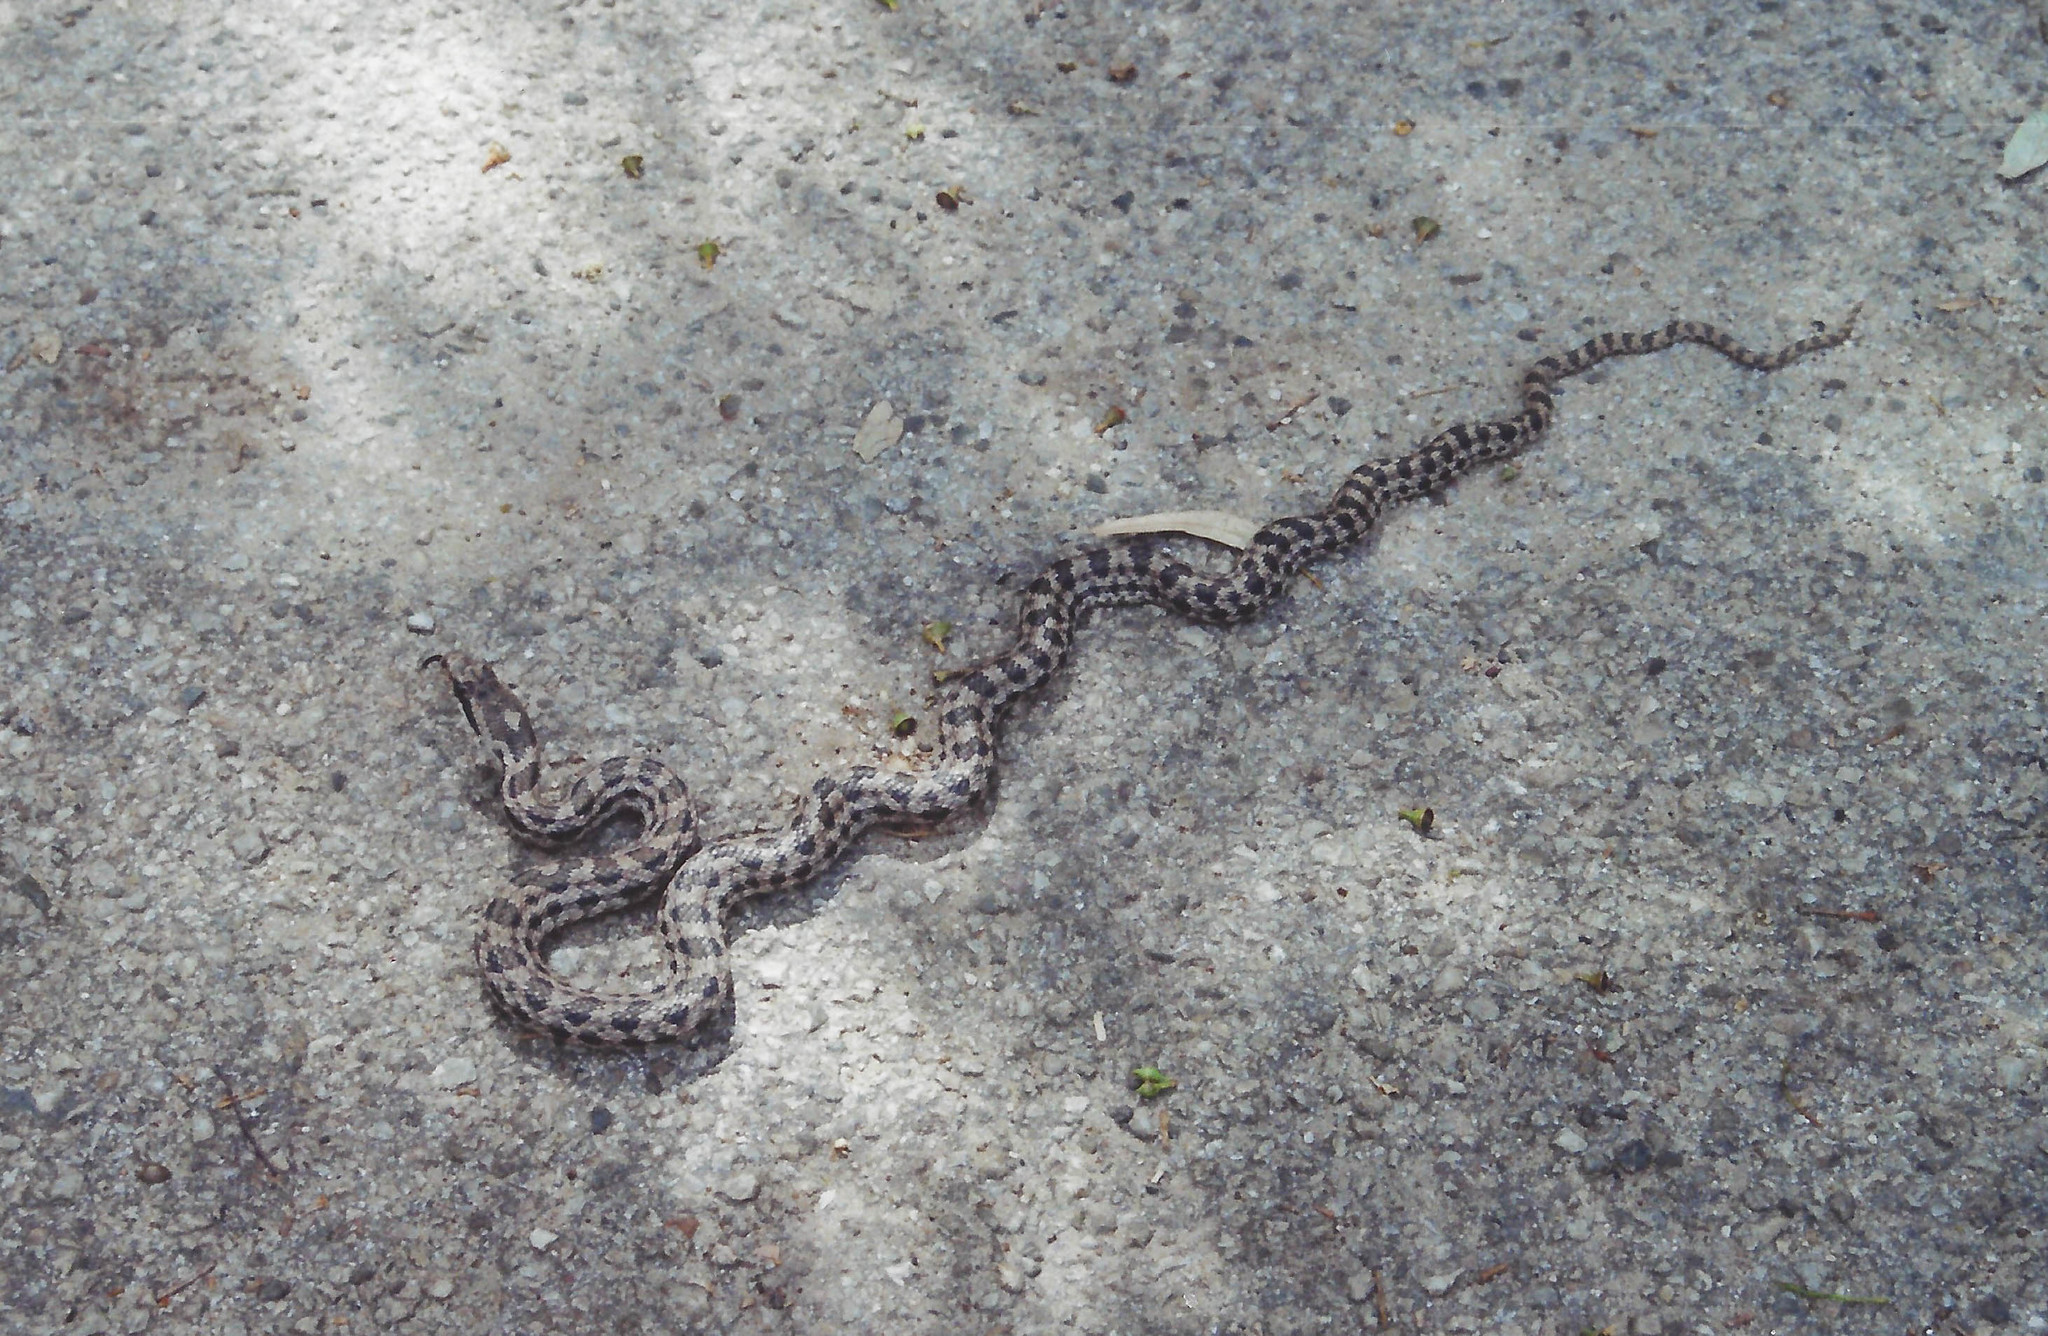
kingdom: Animalia
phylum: Chordata
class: Squamata
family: Colubridae
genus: Elaphe
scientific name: Elaphe quatuorlineata
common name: Four-lined snake
